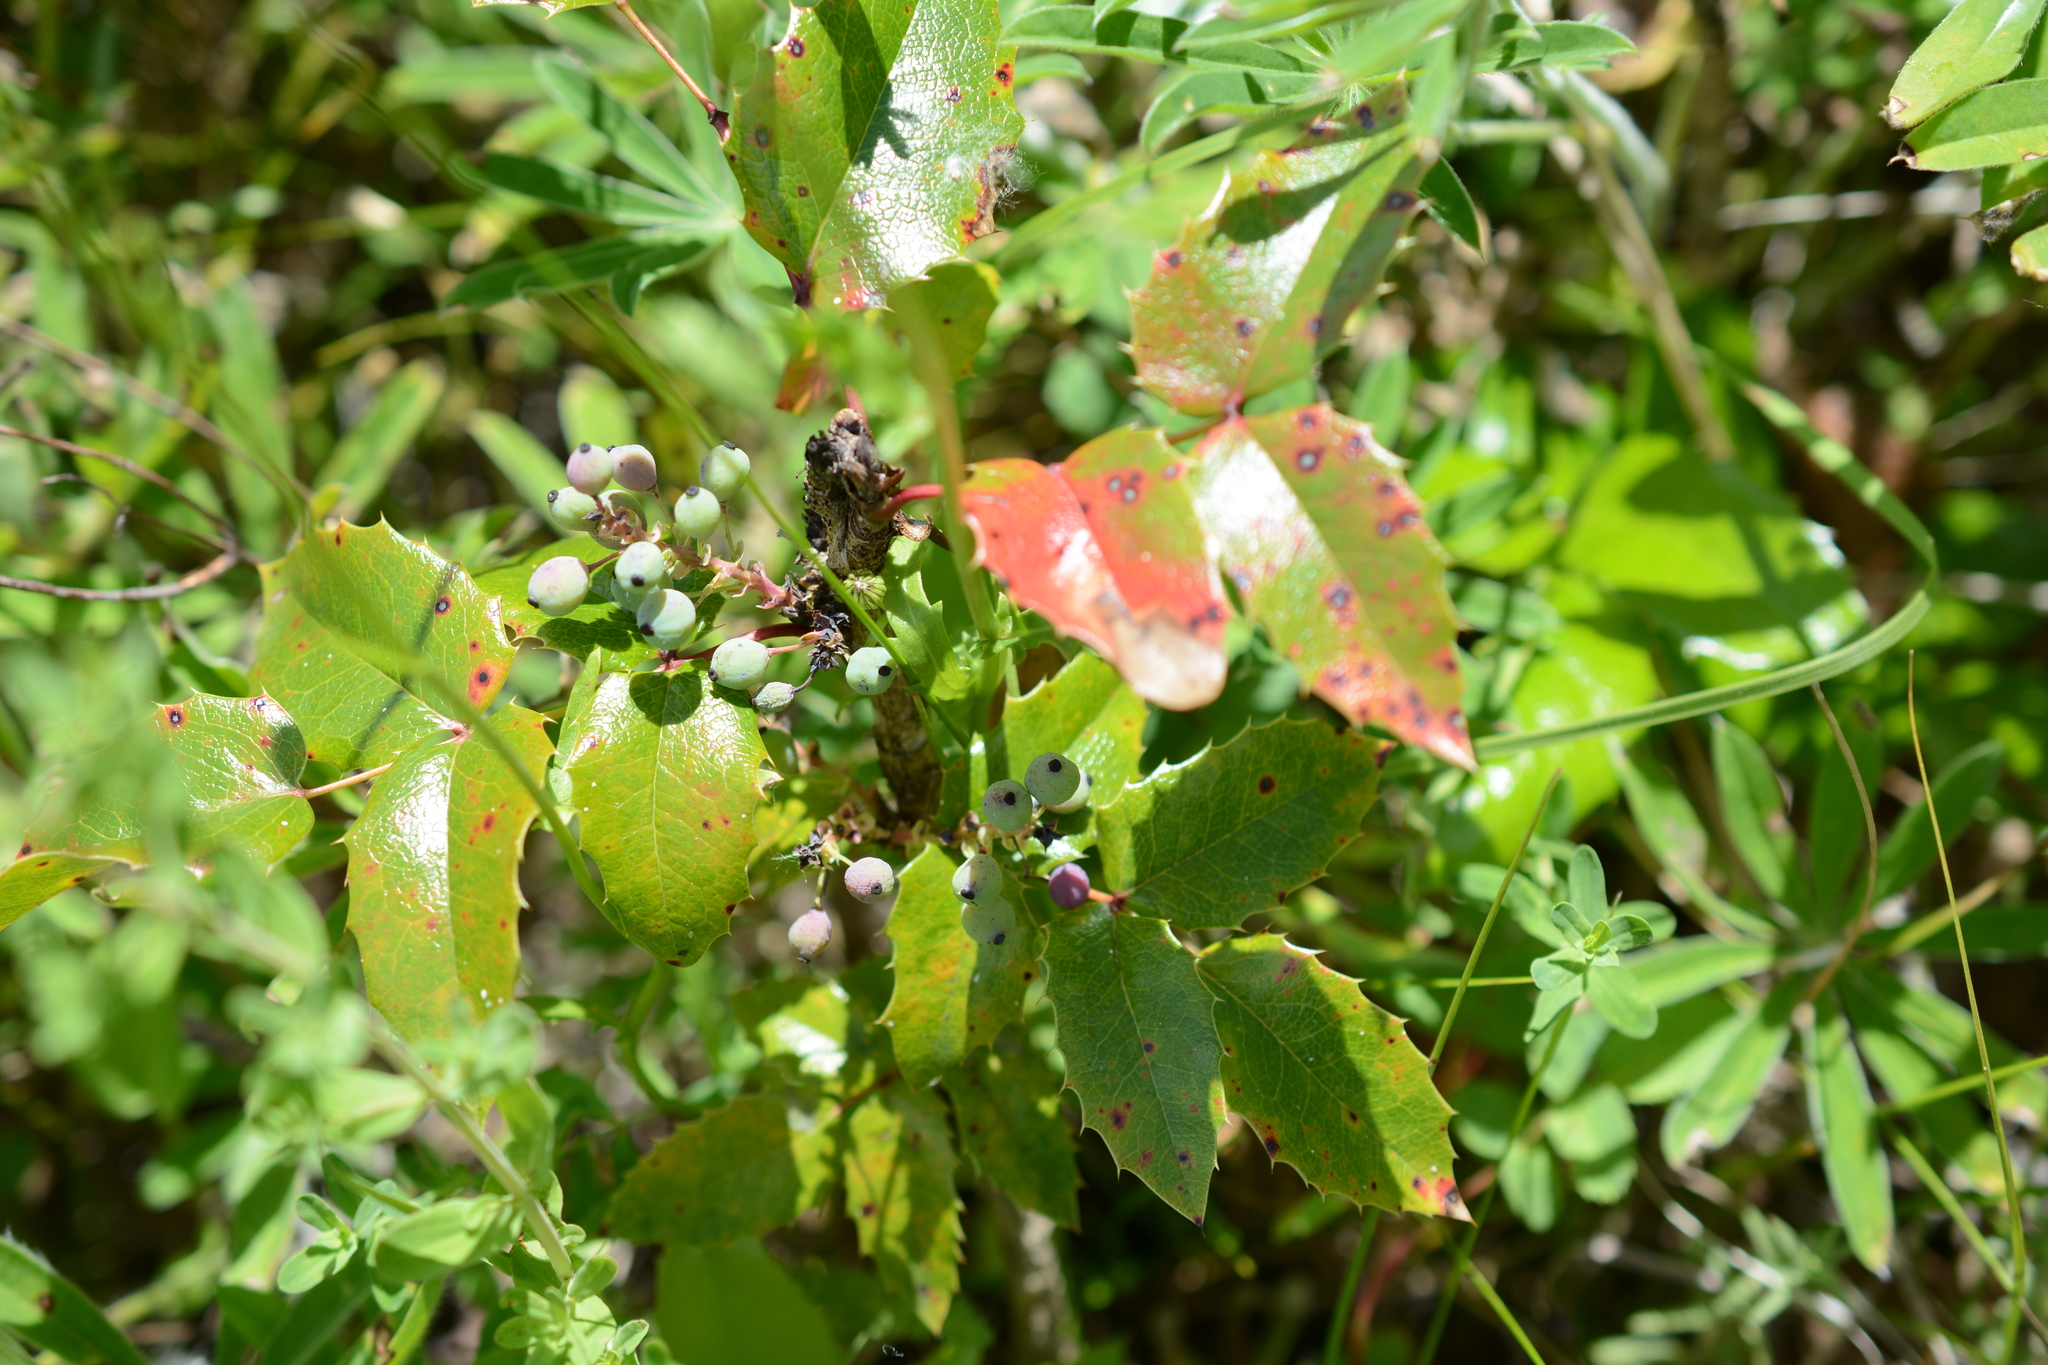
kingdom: Plantae
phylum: Tracheophyta
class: Magnoliopsida
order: Ranunculales
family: Berberidaceae
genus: Mahonia
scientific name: Mahonia aquifolium
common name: Oregon-grape
